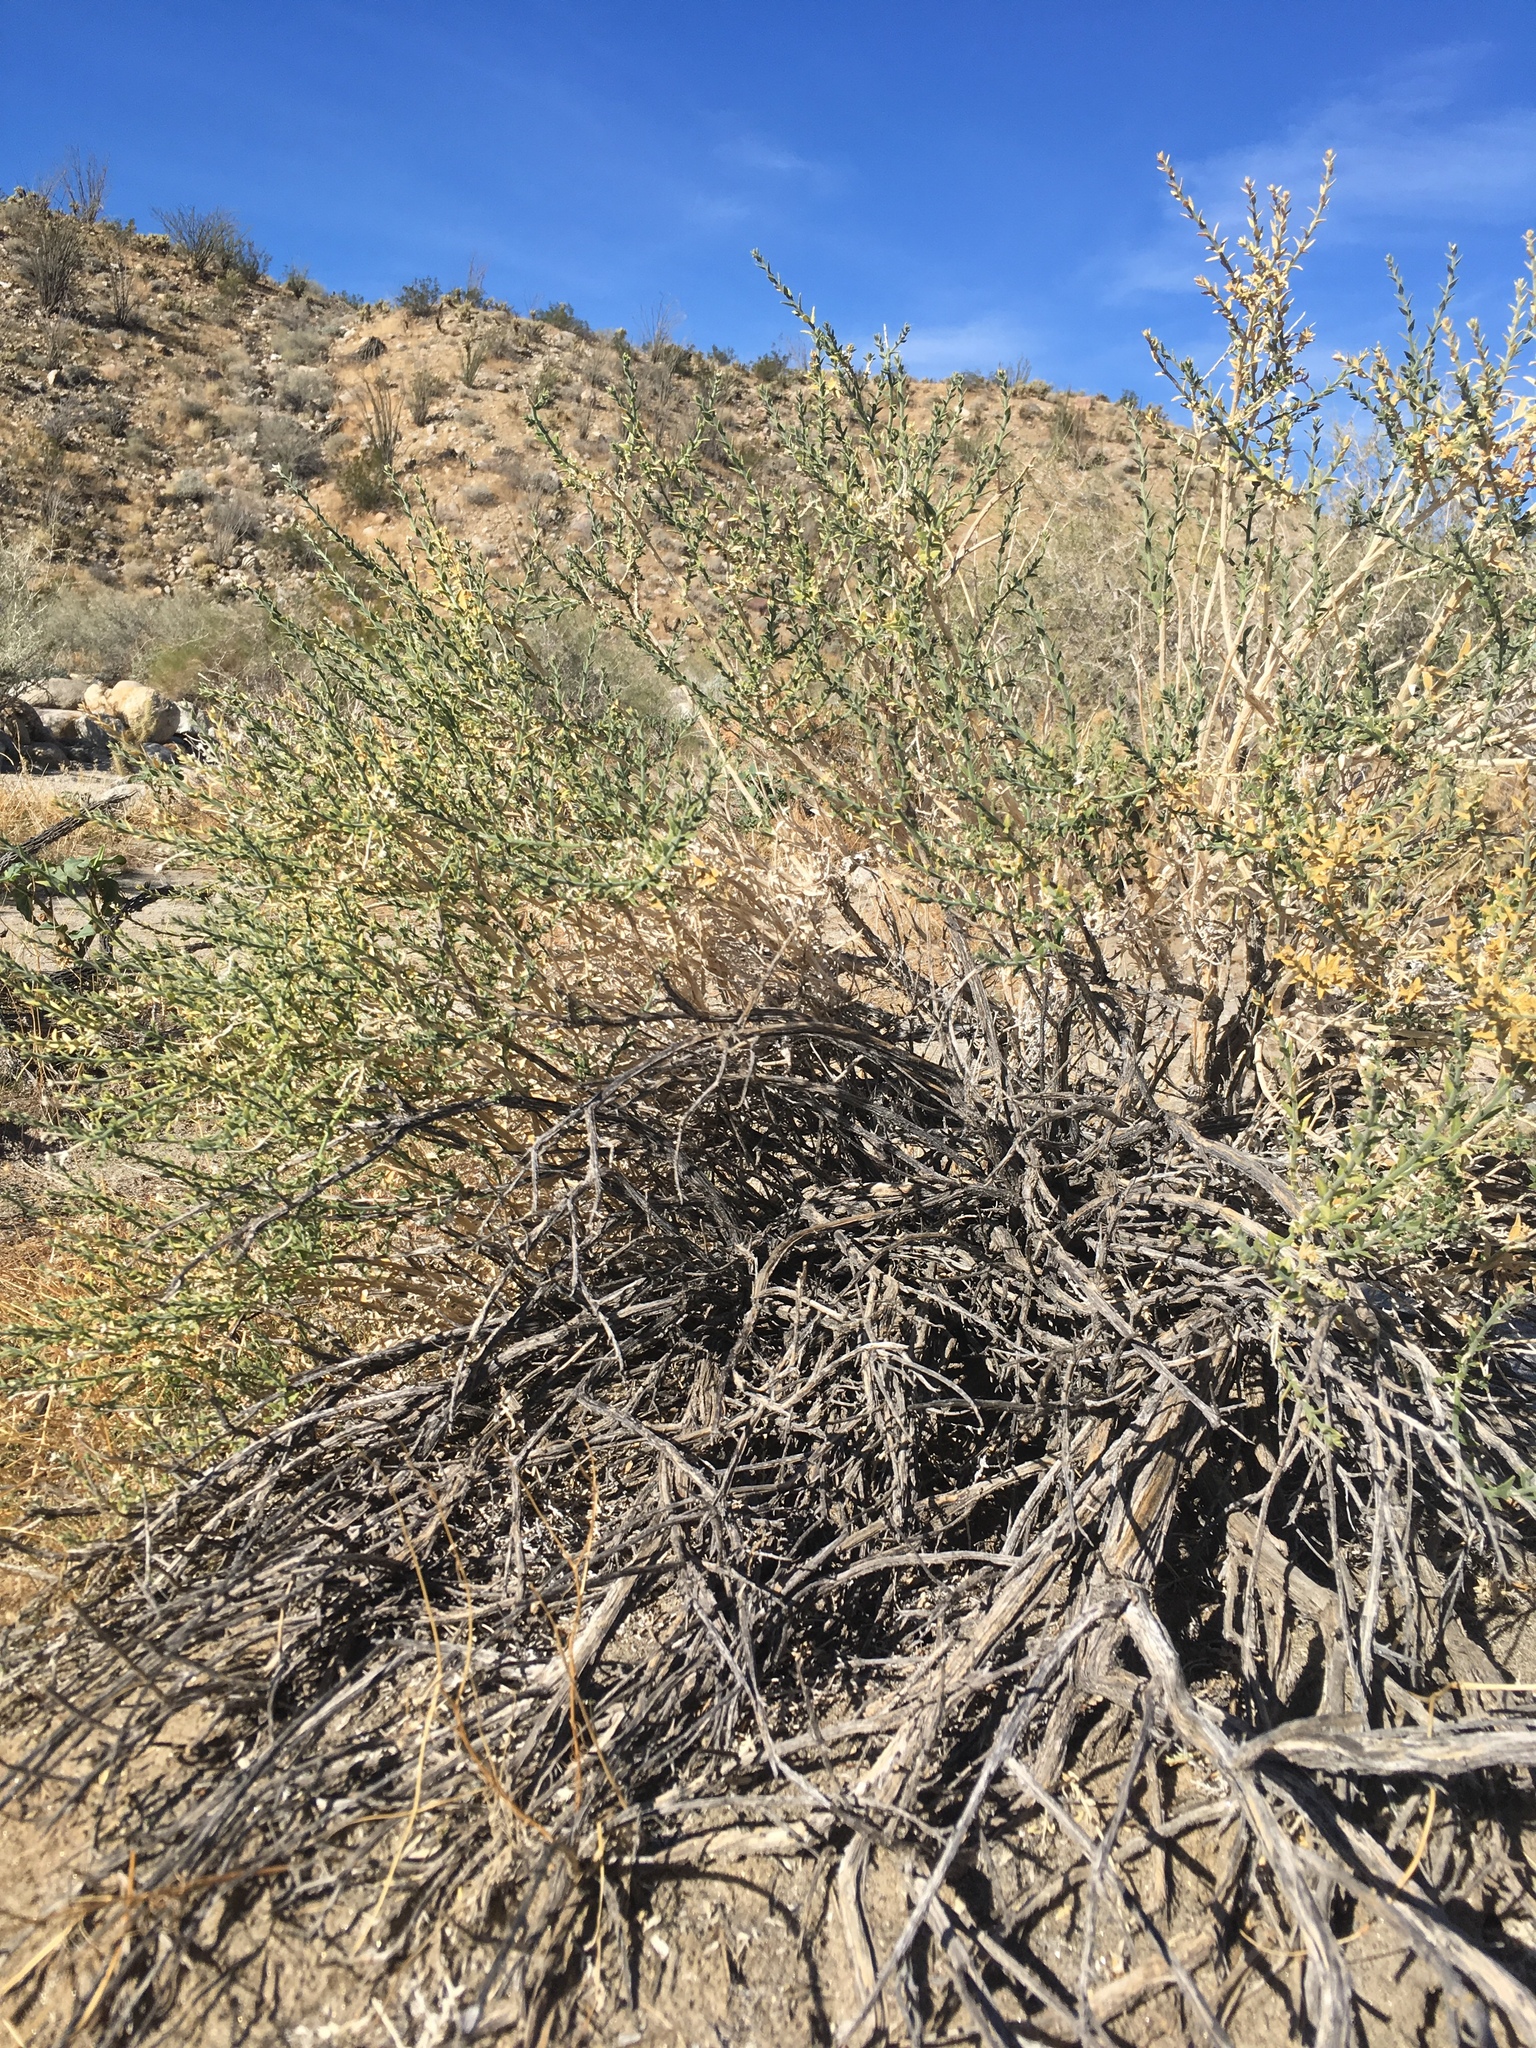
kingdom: Plantae
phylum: Tracheophyta
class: Magnoliopsida
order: Cornales
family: Loasaceae
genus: Petalonyx
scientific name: Petalonyx thurberi
